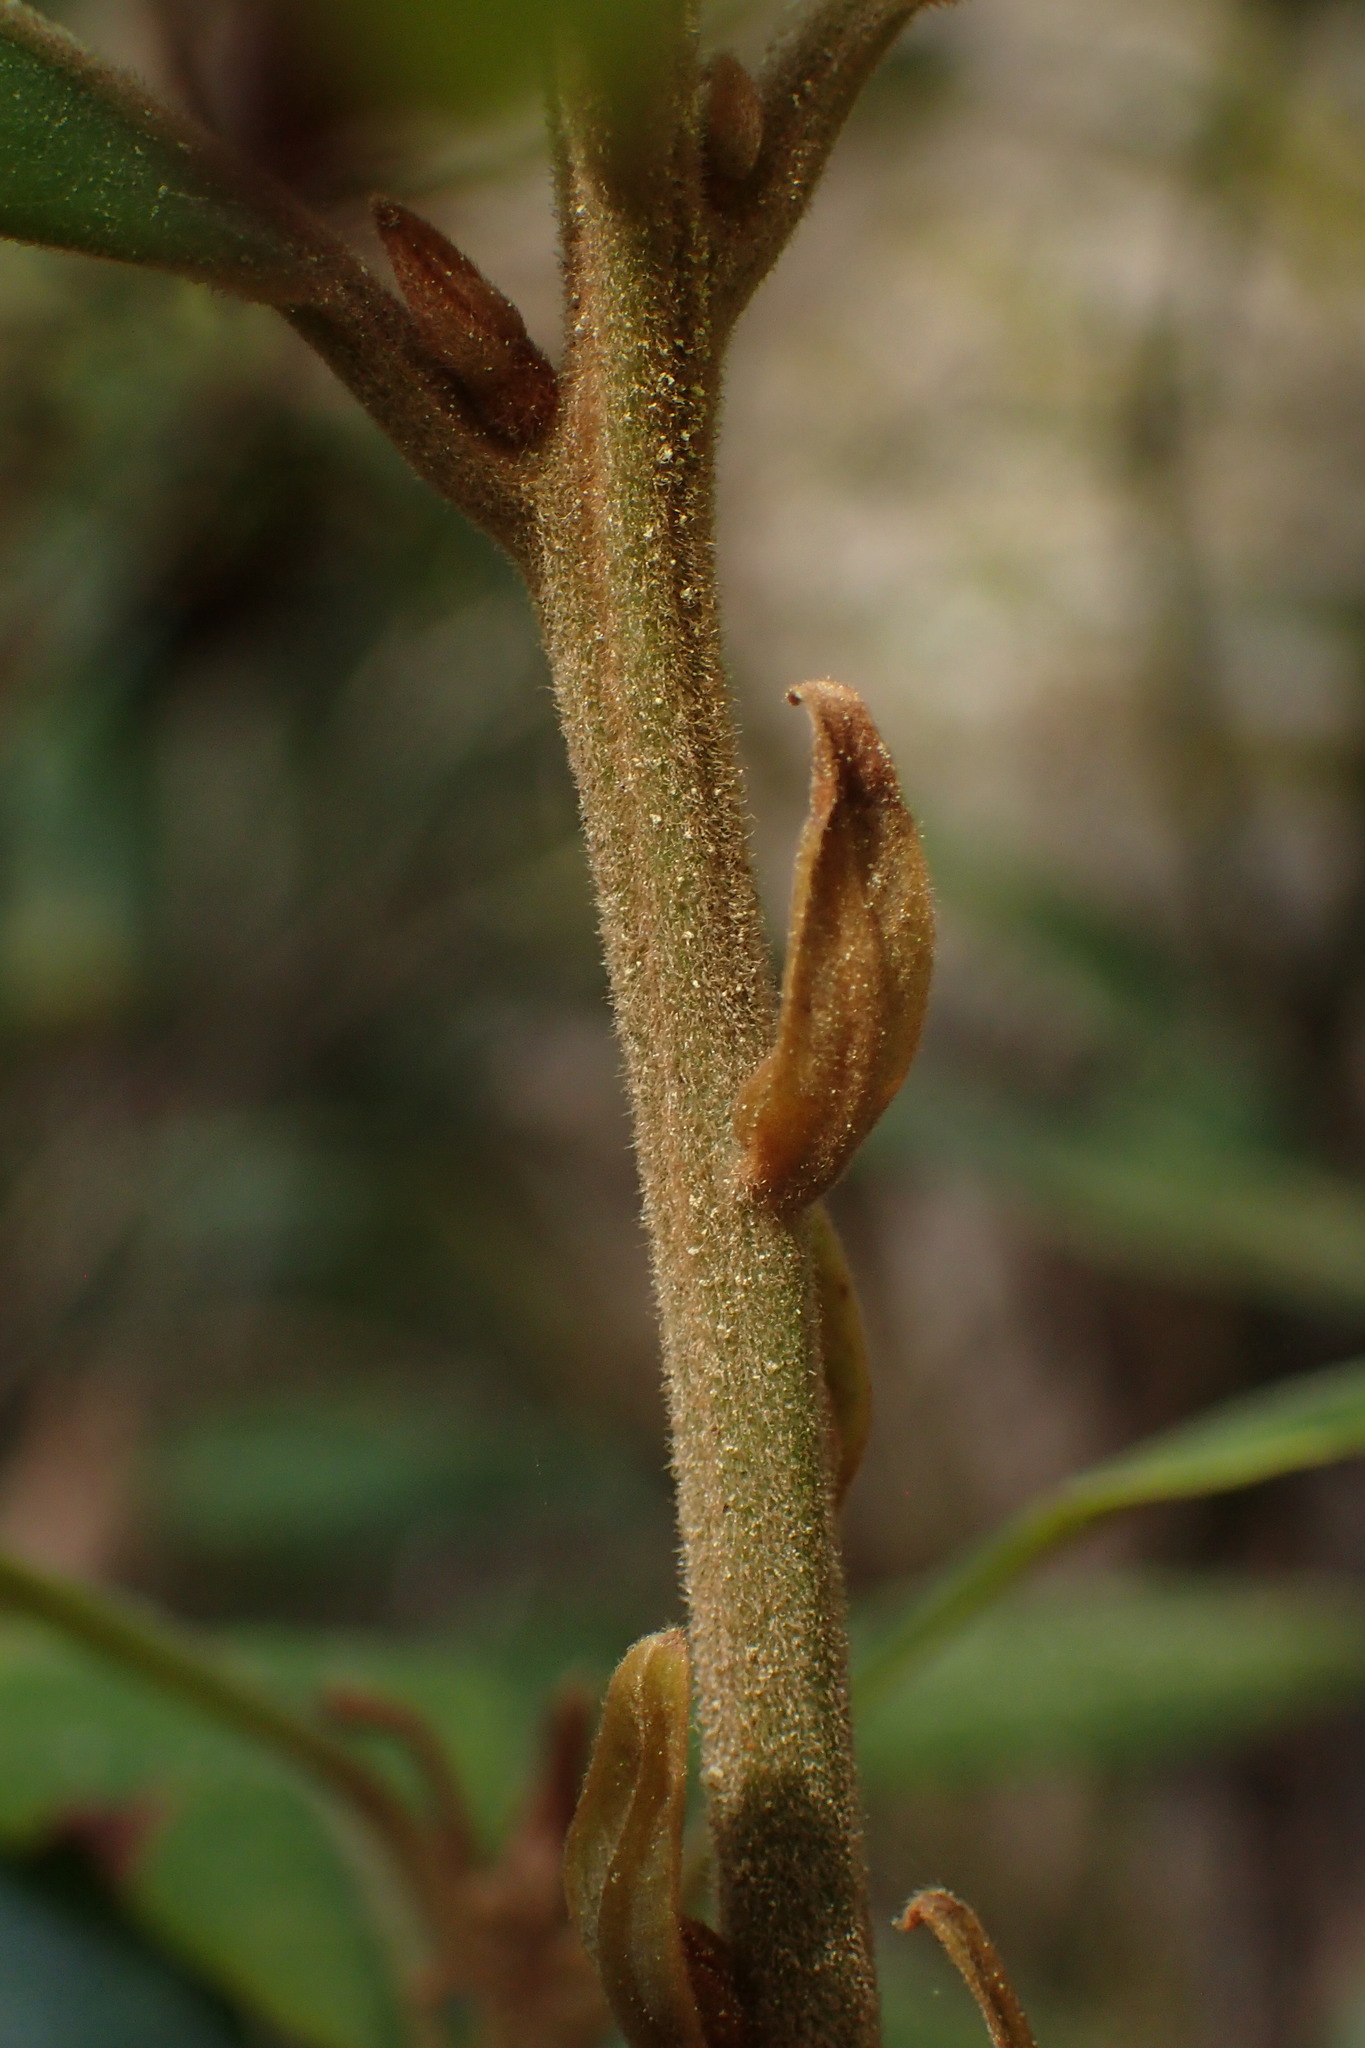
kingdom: Plantae
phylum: Tracheophyta
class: Magnoliopsida
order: Laurales
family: Lauraceae
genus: Persea
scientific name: Persea palustris
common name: Swampbay
